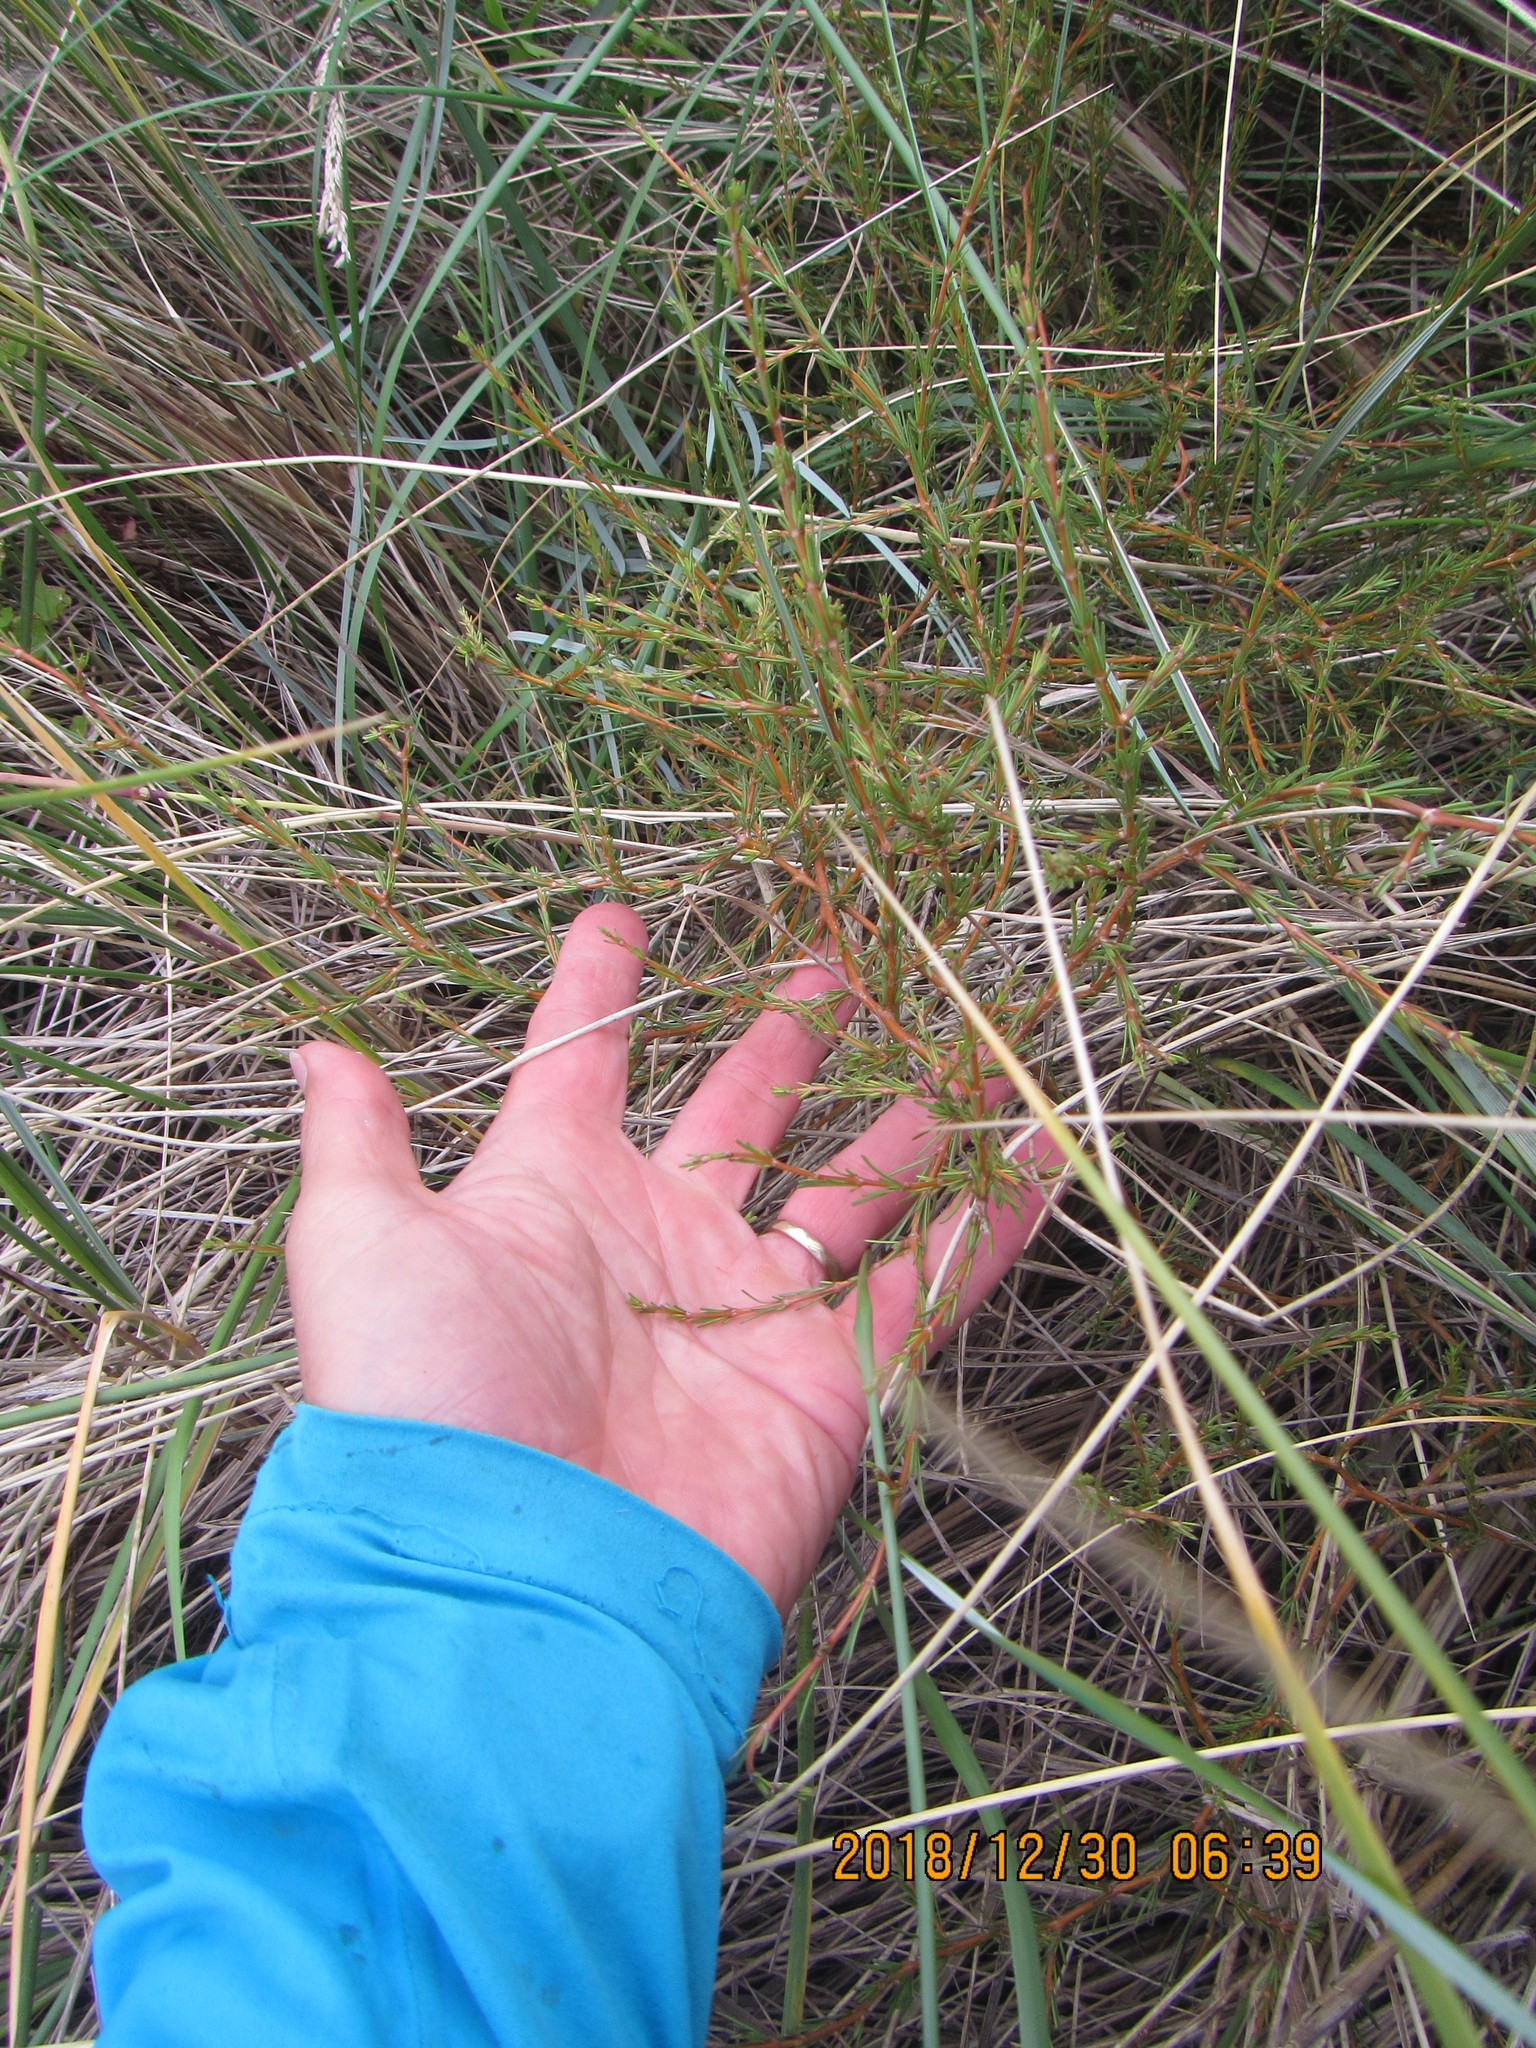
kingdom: Plantae
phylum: Tracheophyta
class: Magnoliopsida
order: Gentianales
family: Rubiaceae
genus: Coprosma
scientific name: Coprosma acerosa
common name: Sand coprosma
